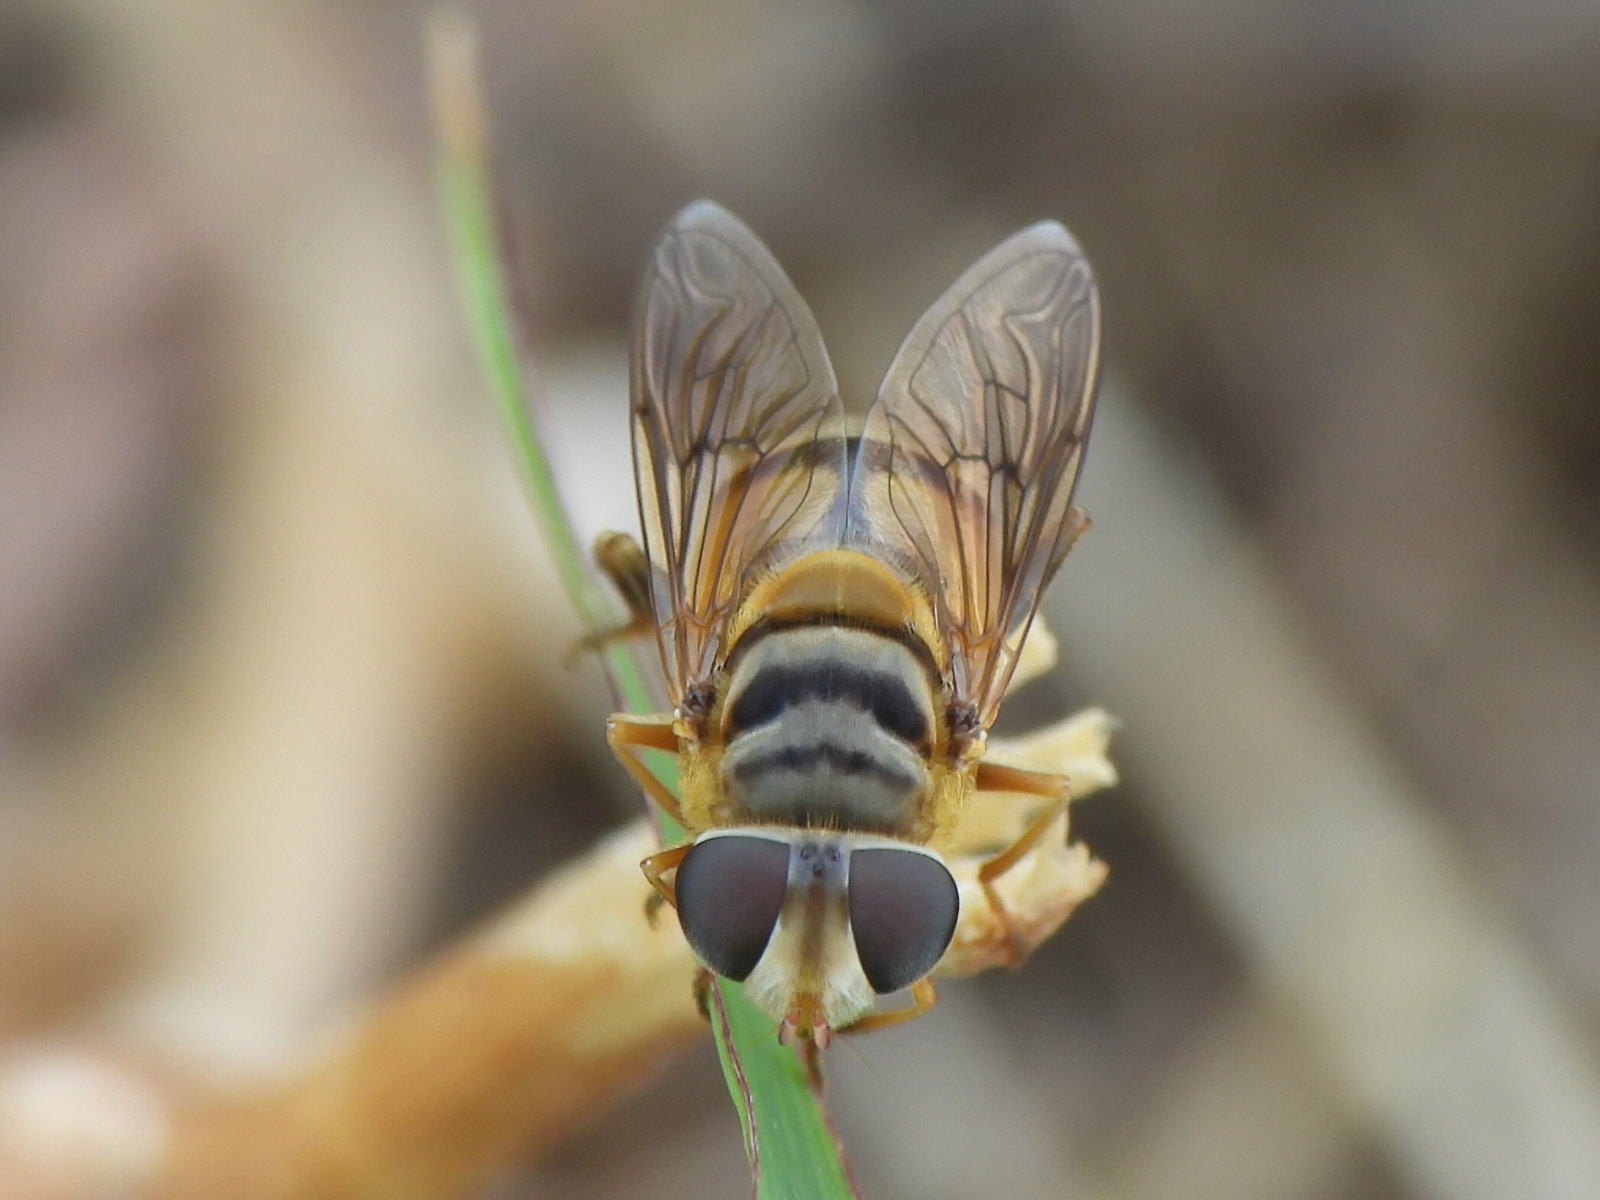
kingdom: Animalia
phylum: Arthropoda
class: Insecta
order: Diptera
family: Syrphidae
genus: Palpada
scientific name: Palpada vinetorum
